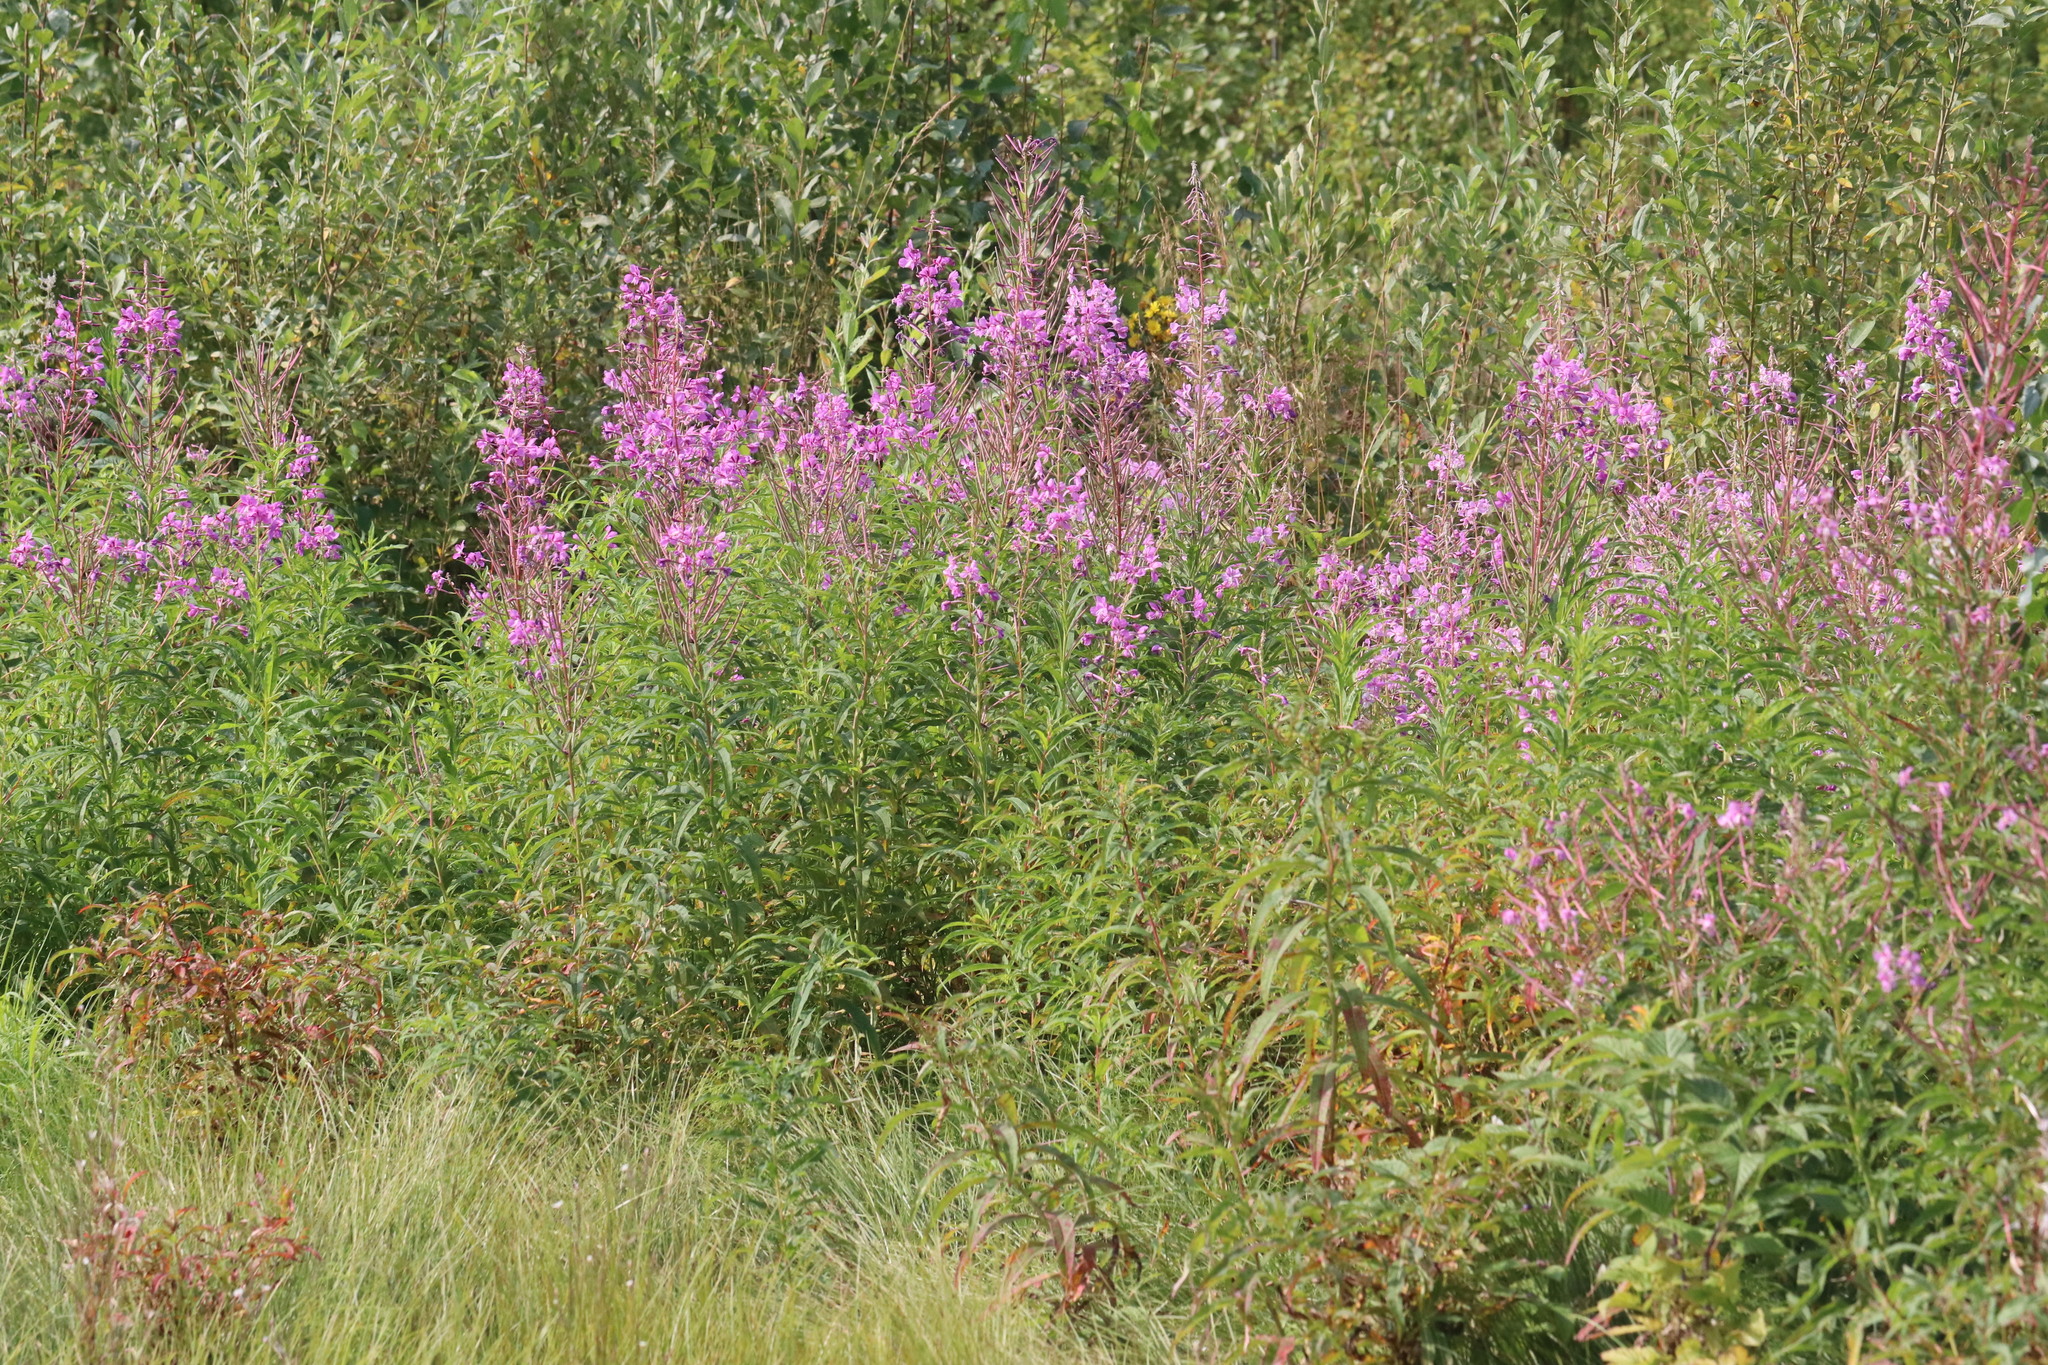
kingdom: Plantae
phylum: Tracheophyta
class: Magnoliopsida
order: Myrtales
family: Onagraceae
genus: Chamaenerion
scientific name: Chamaenerion angustifolium
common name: Fireweed
